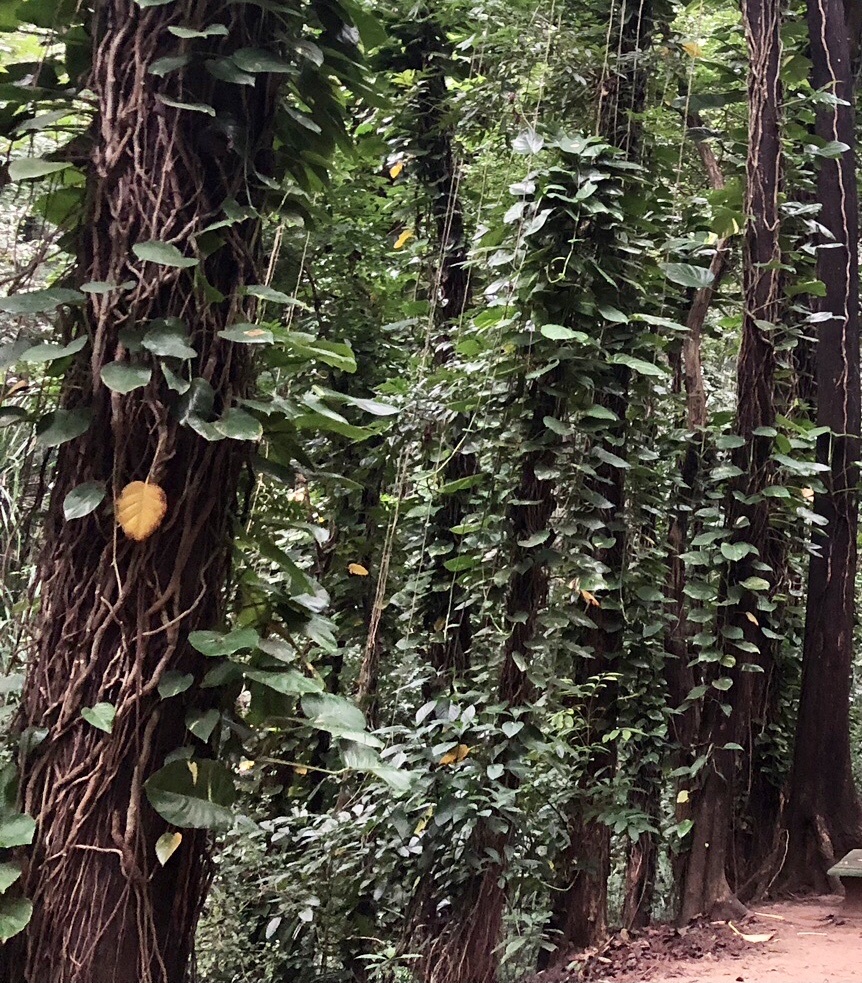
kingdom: Plantae
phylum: Tracheophyta
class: Liliopsida
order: Alismatales
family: Araceae
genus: Epipremnum
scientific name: Epipremnum aureum
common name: Golden hunter's-robe
